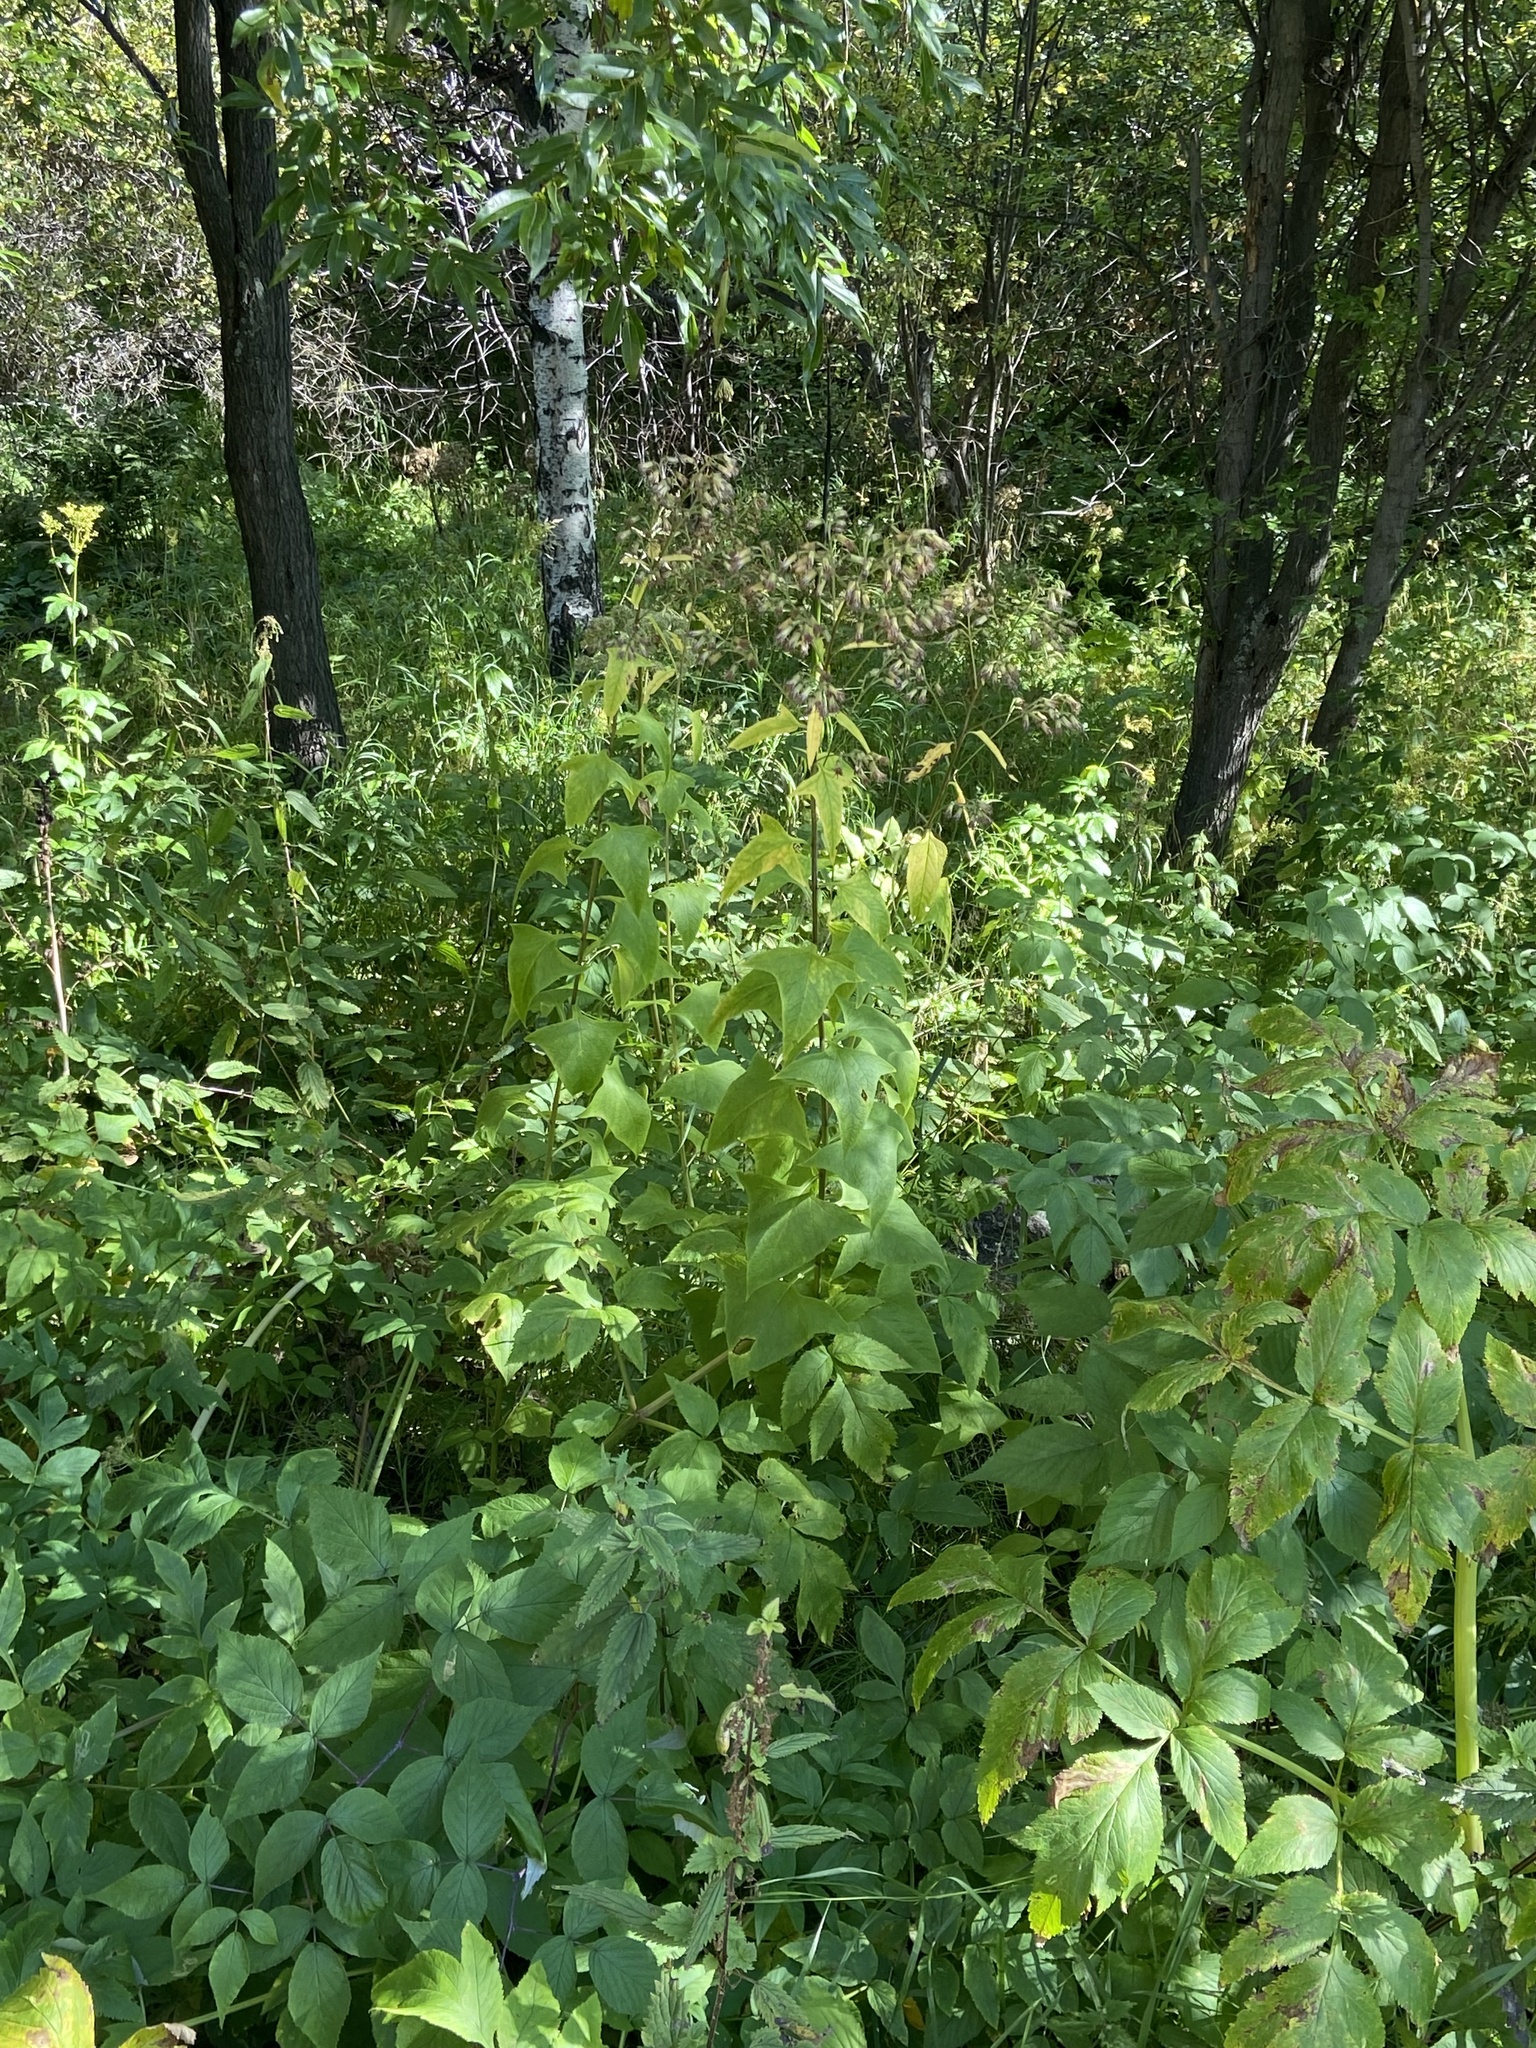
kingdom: Plantae
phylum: Tracheophyta
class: Magnoliopsida
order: Asterales
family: Asteraceae
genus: Parasenecio
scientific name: Parasenecio hastatus
